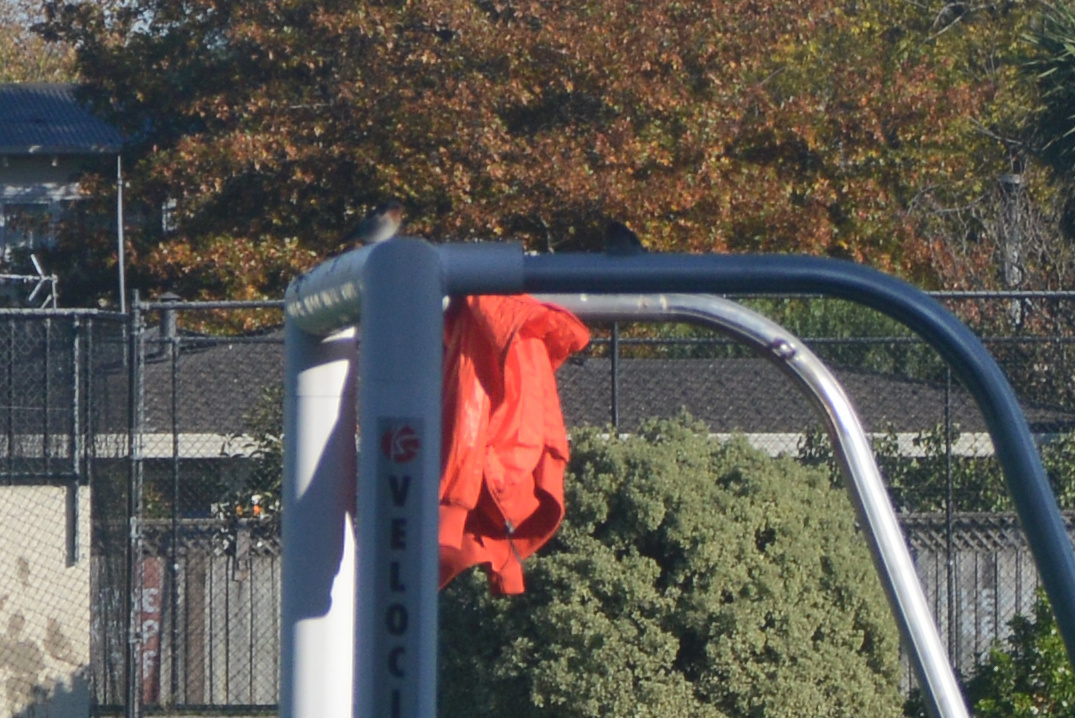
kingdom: Animalia
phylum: Chordata
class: Aves
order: Passeriformes
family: Hirundinidae
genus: Hirundo
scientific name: Hirundo neoxena
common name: Welcome swallow
